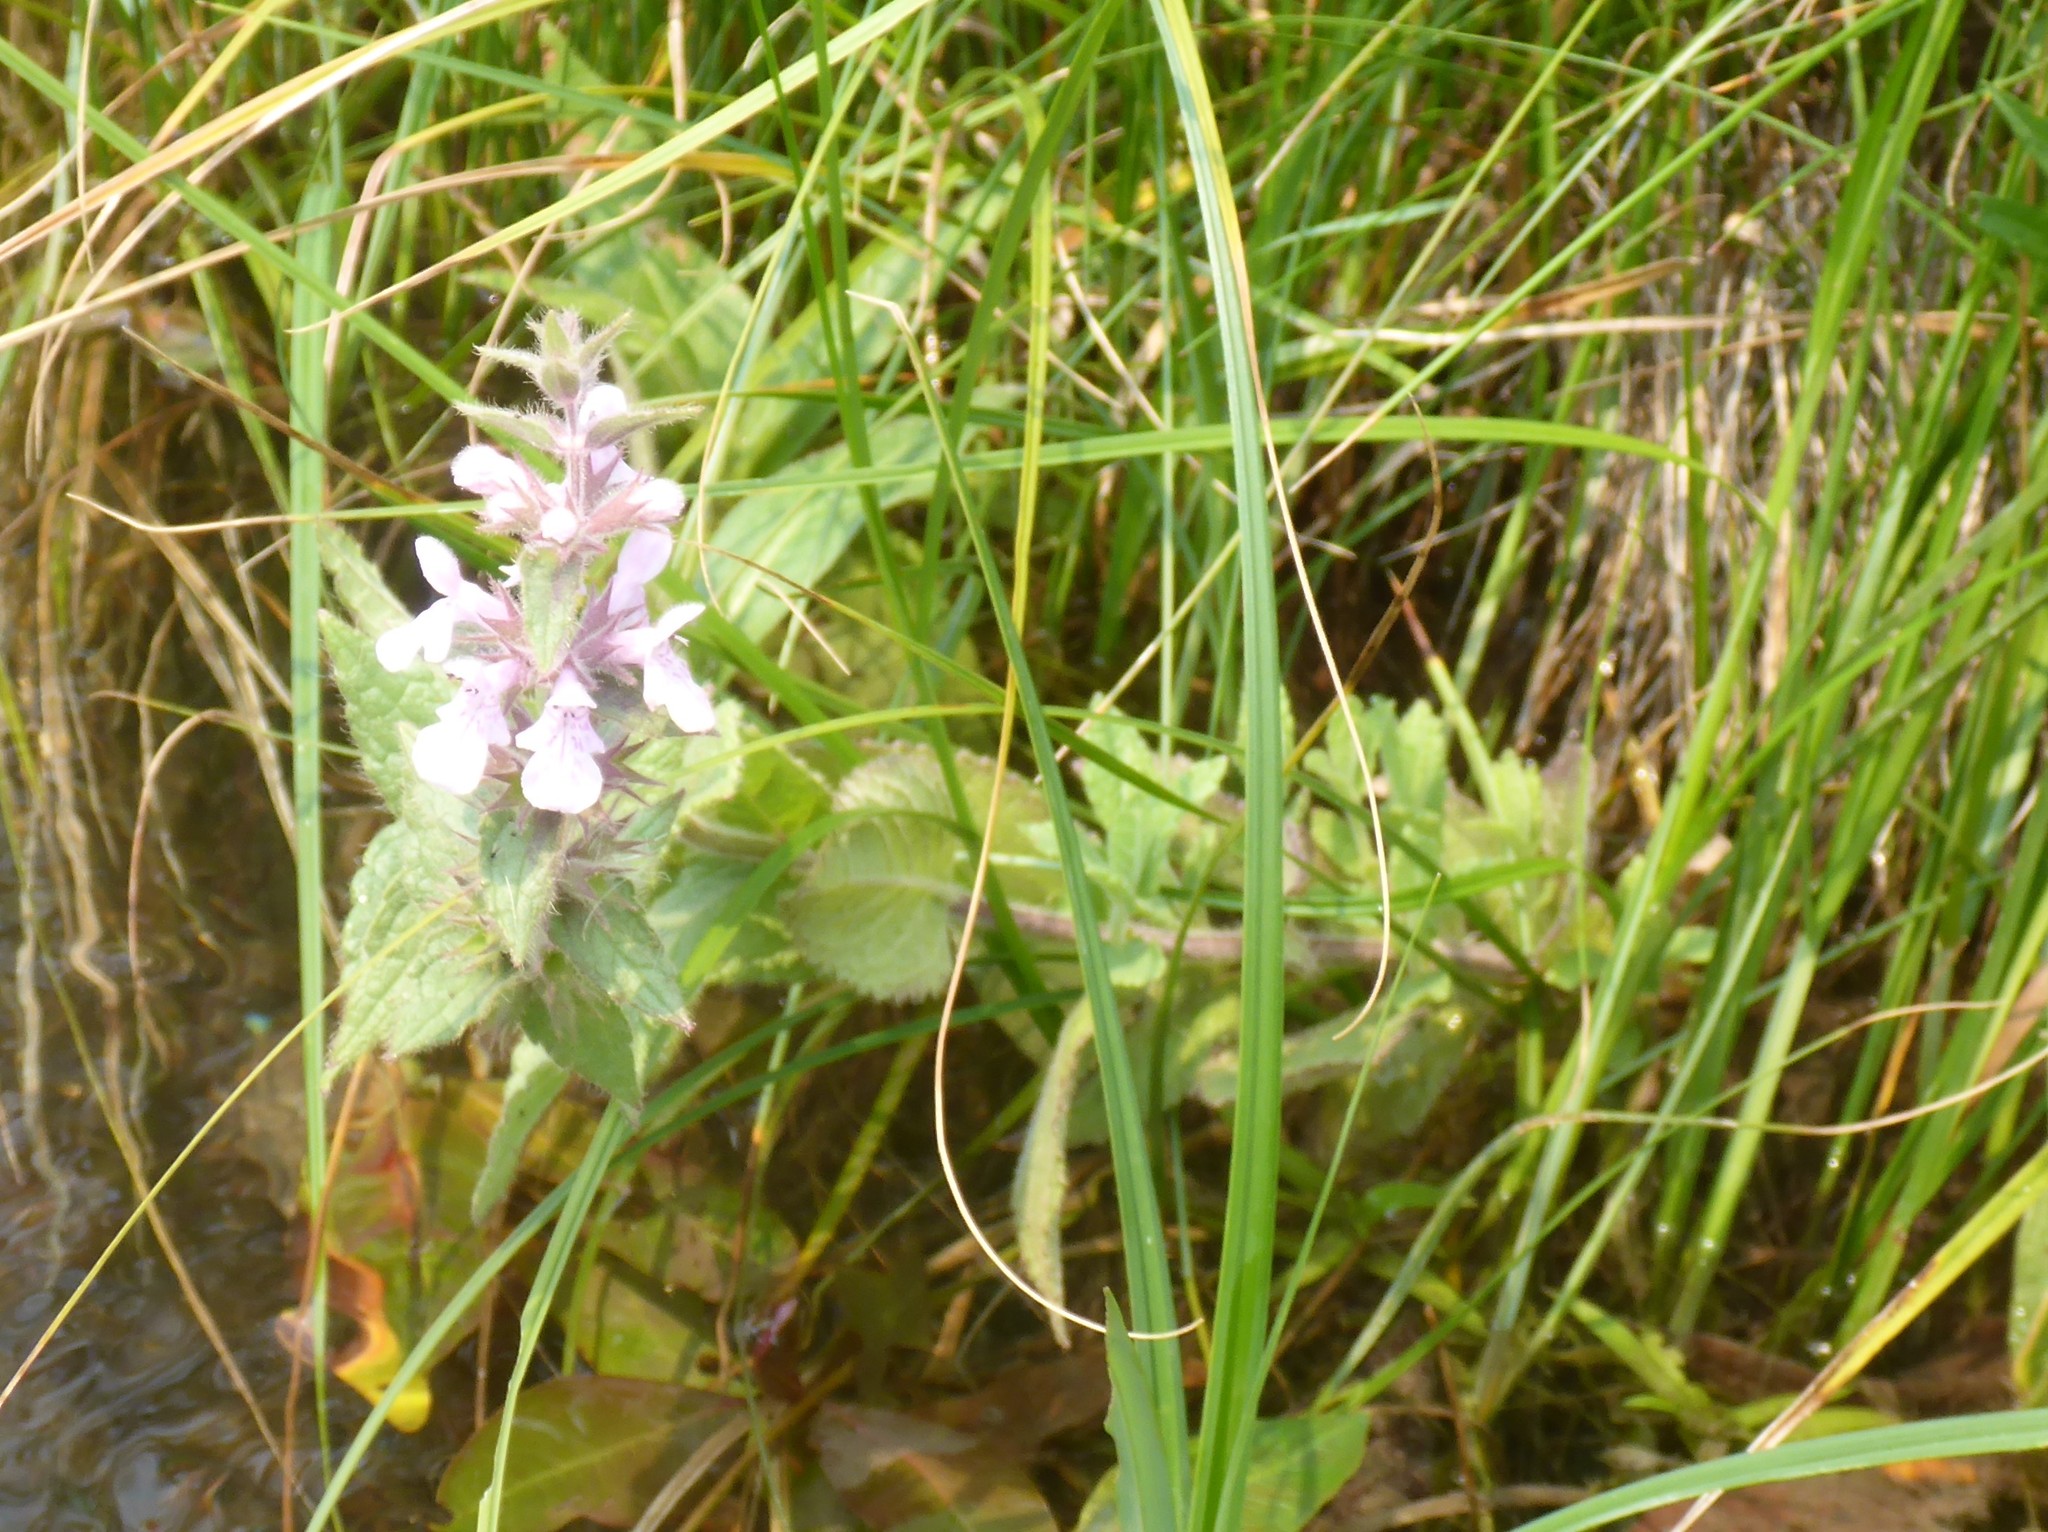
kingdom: Plantae
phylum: Tracheophyta
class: Magnoliopsida
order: Lamiales
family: Lamiaceae
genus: Stachys
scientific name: Stachys pilosa
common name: Hairy hedge-nettle
